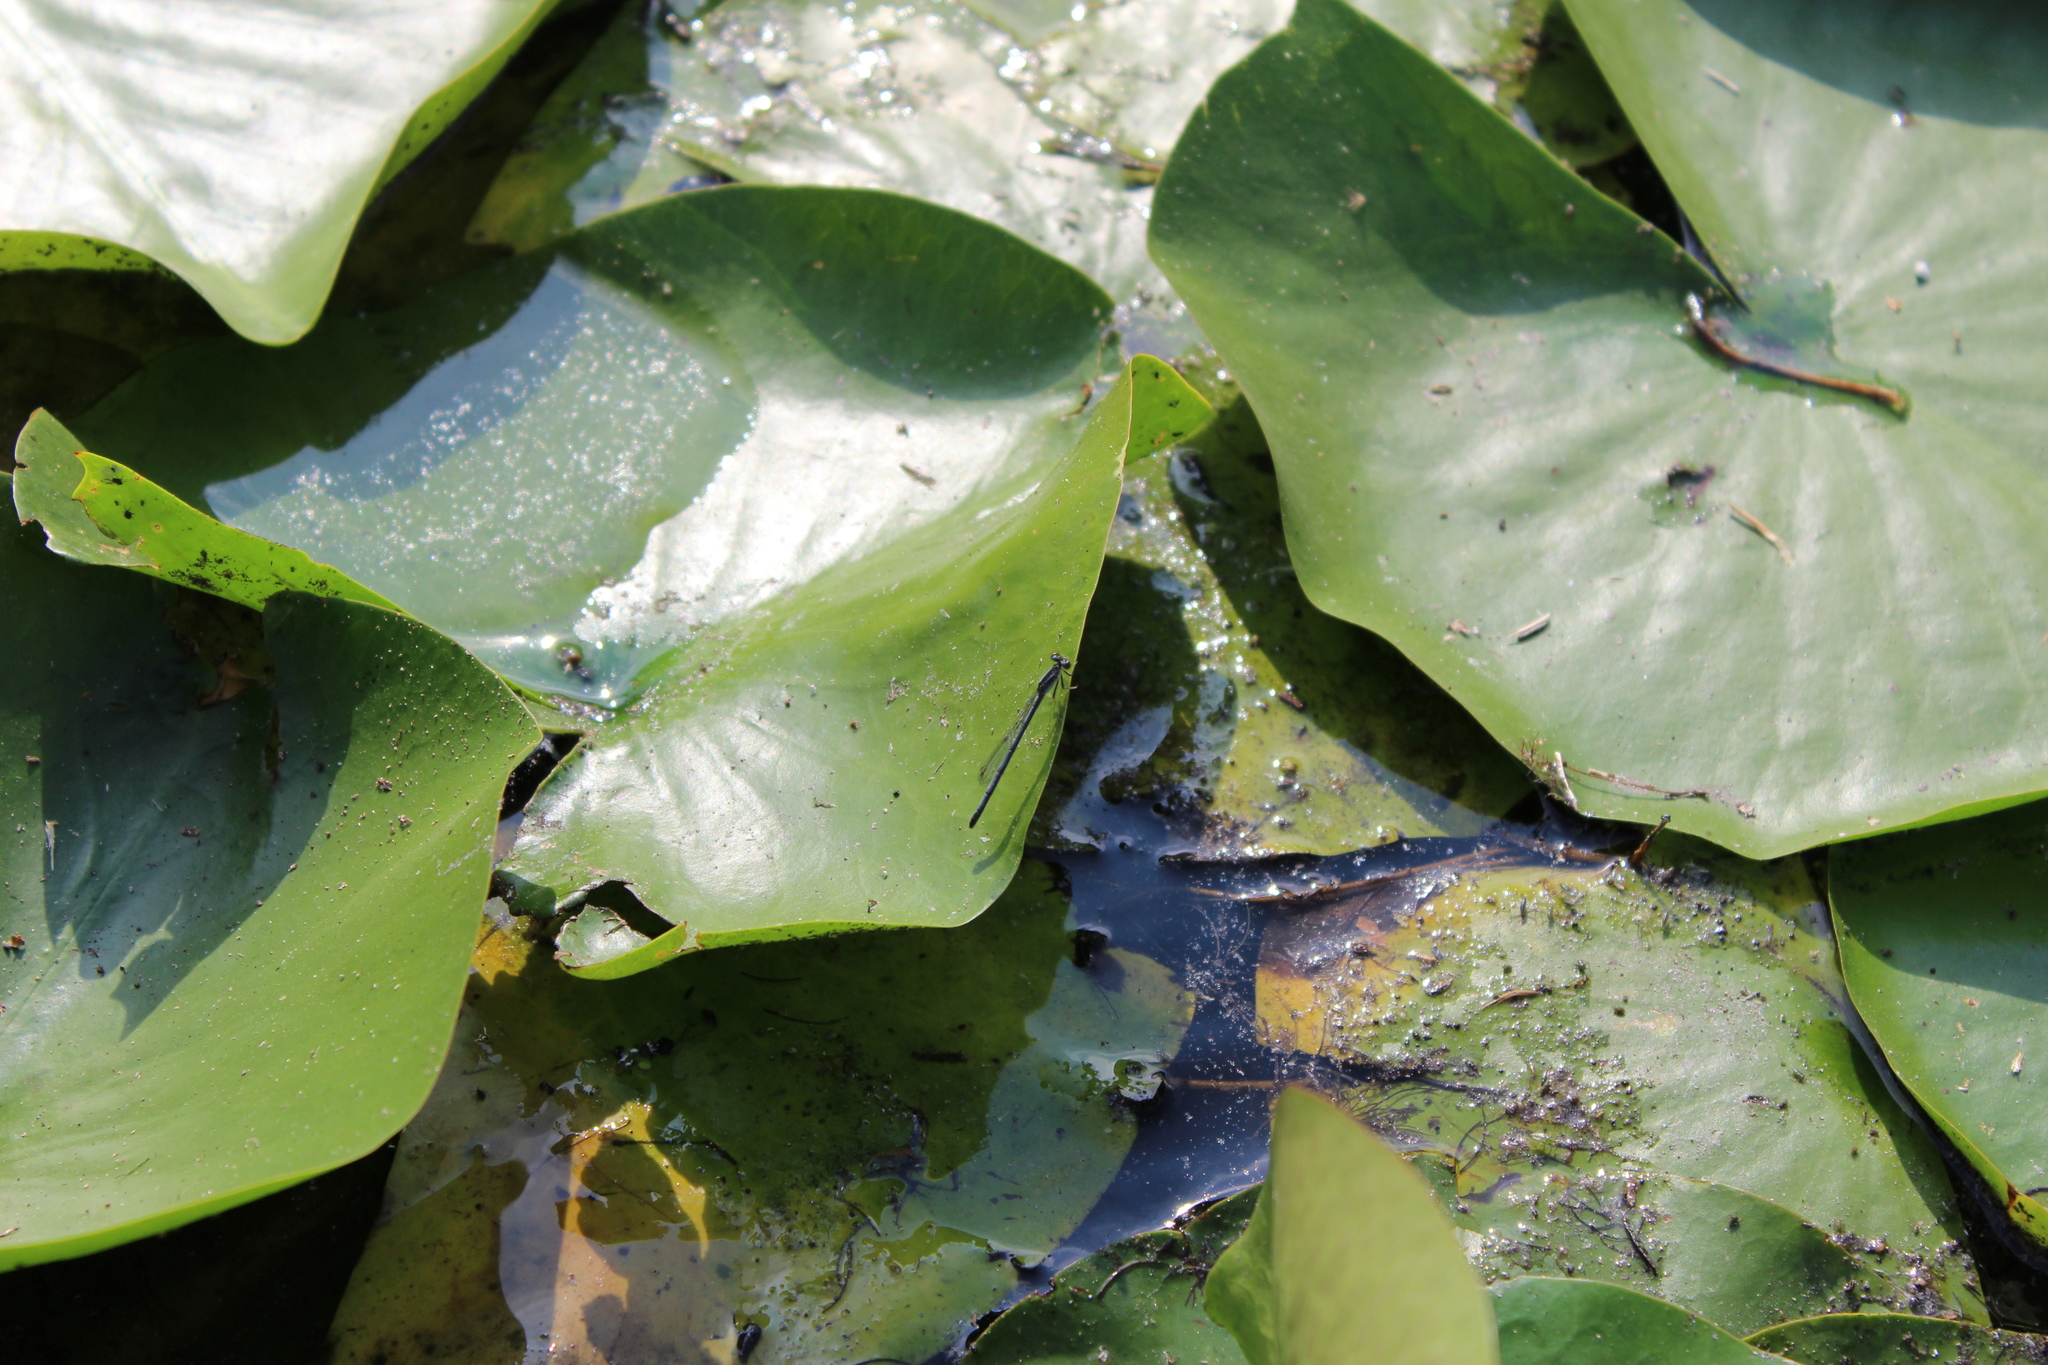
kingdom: Animalia
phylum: Arthropoda
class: Insecta
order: Odonata
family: Coenagrionidae
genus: Ischnura
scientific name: Ischnura verticalis
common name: Eastern forktail
